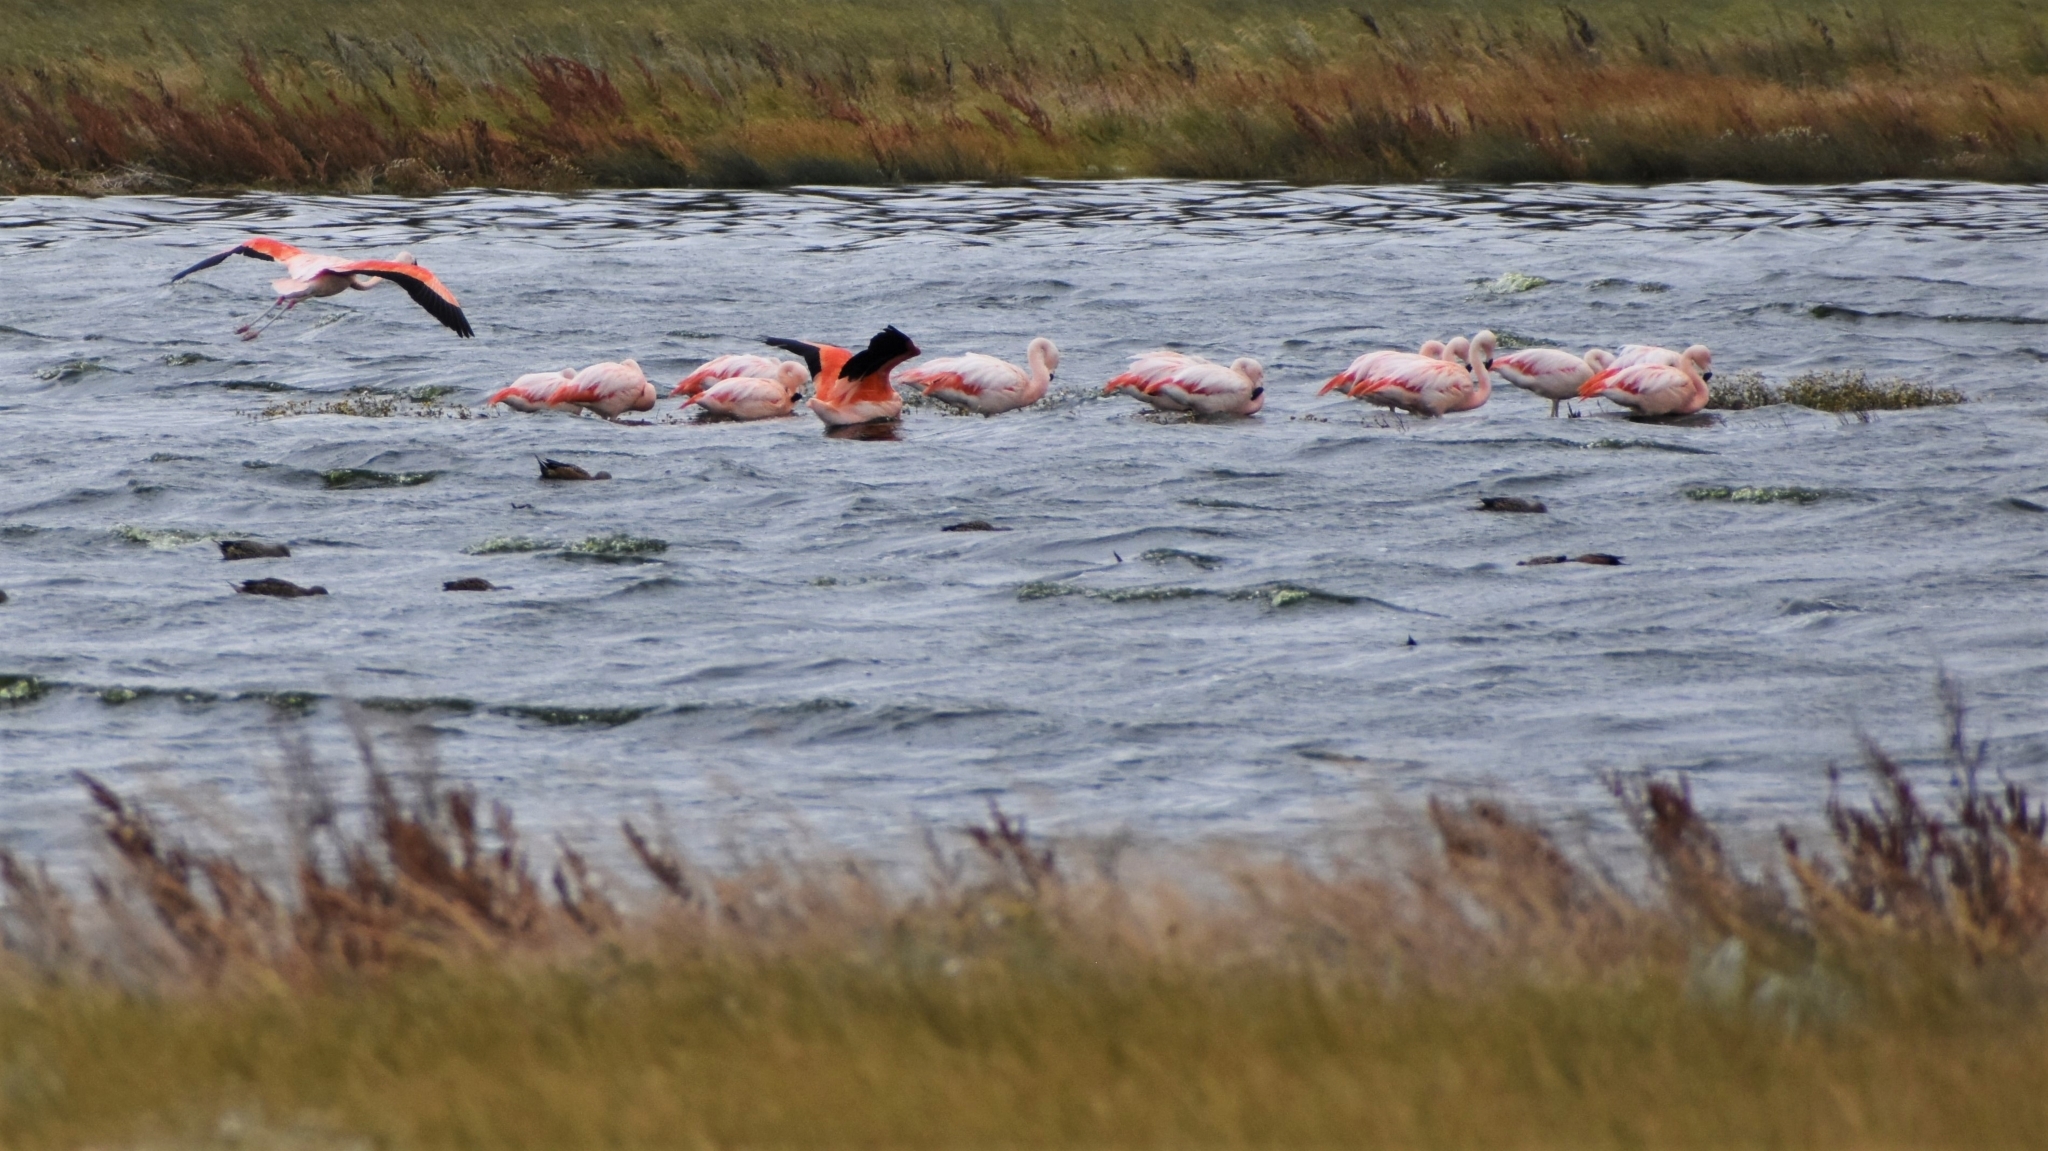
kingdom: Animalia
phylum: Chordata
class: Aves
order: Phoenicopteriformes
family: Phoenicopteridae
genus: Phoenicopterus
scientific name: Phoenicopterus chilensis
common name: Chilean flamingo
